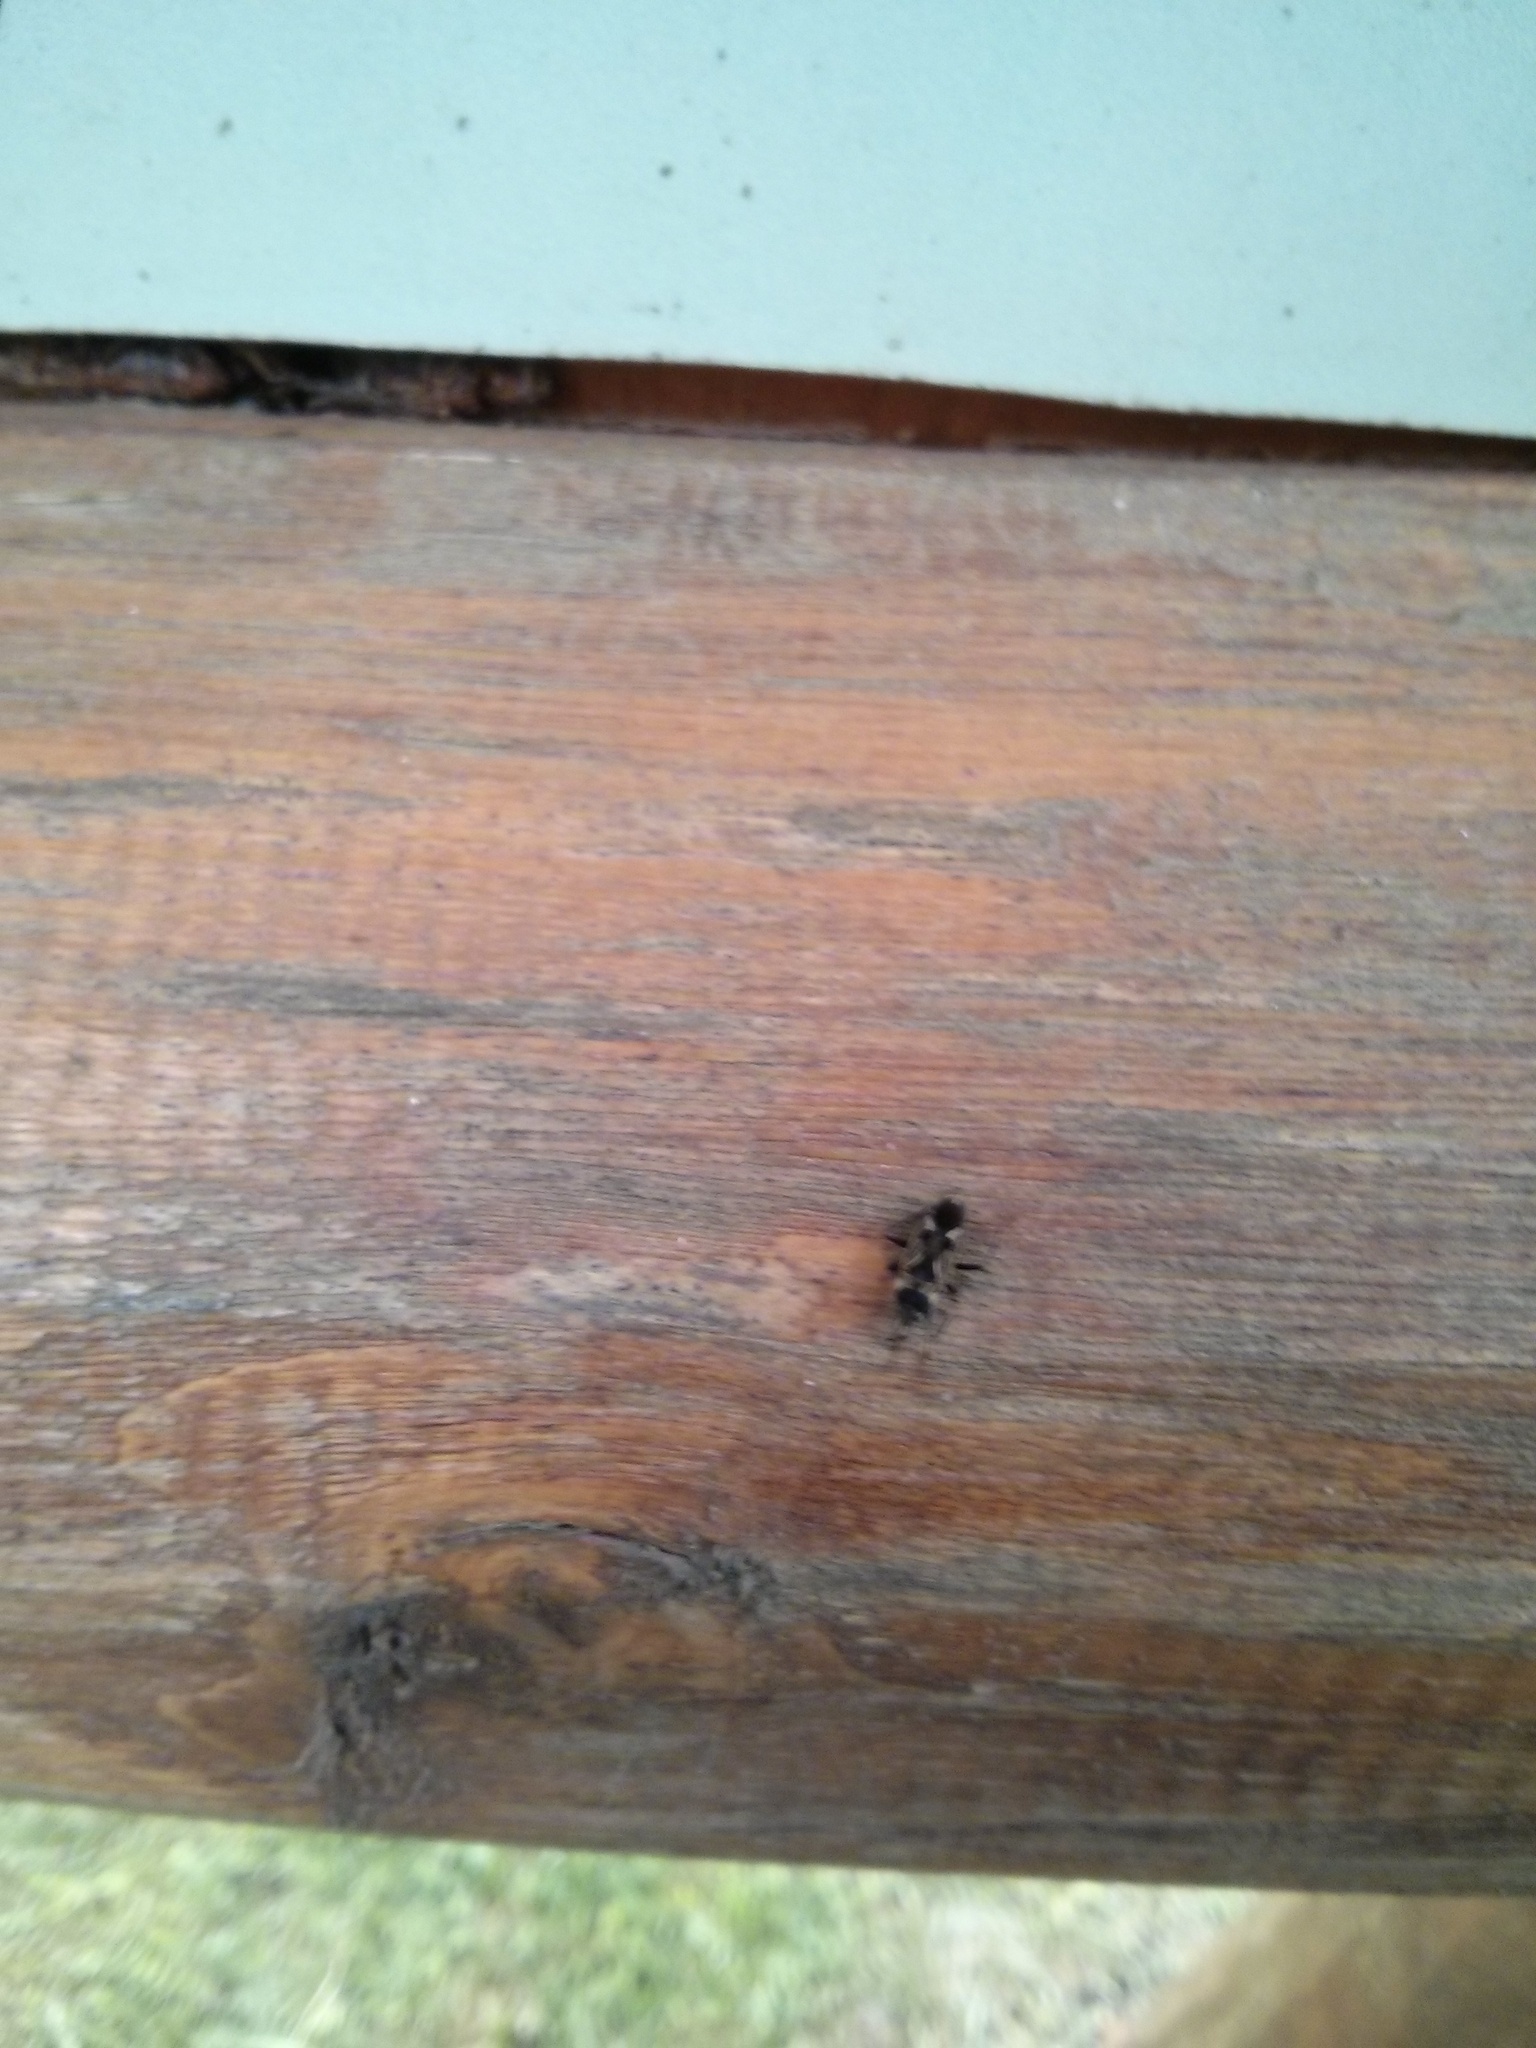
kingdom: Animalia
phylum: Arthropoda
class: Insecta
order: Hemiptera
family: Rhyparochromidae
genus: Rhyparochromus
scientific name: Rhyparochromus vulgaris
